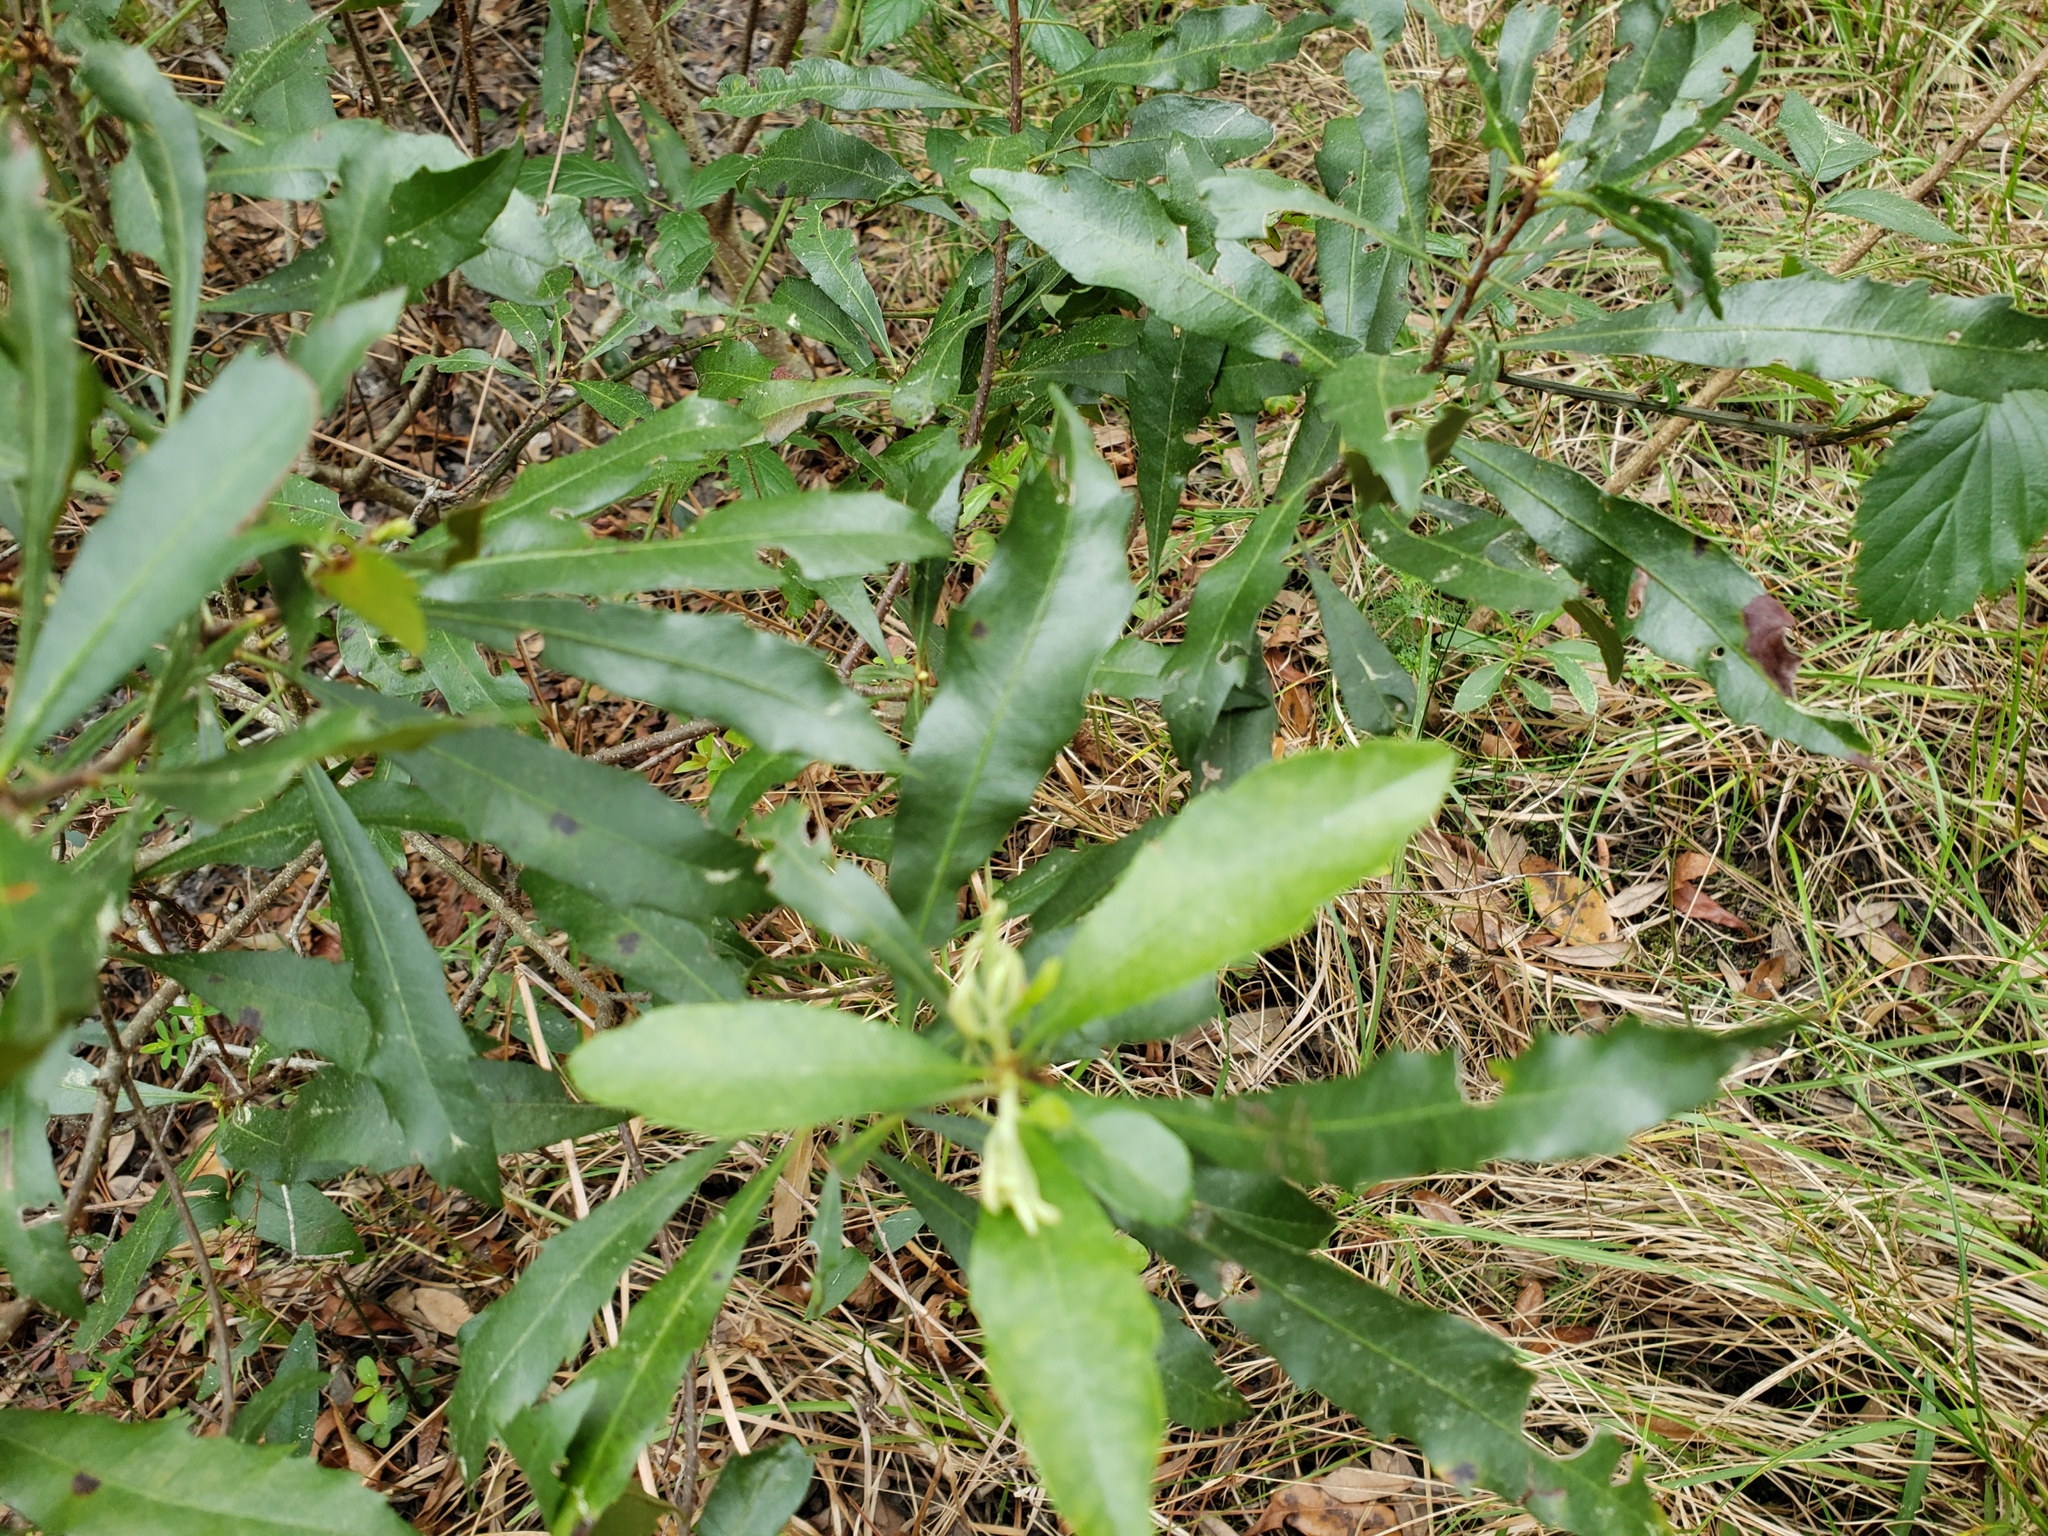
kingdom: Plantae
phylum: Tracheophyta
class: Magnoliopsida
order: Fagales
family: Myricaceae
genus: Morella
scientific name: Morella cerifera
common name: Wax myrtle
